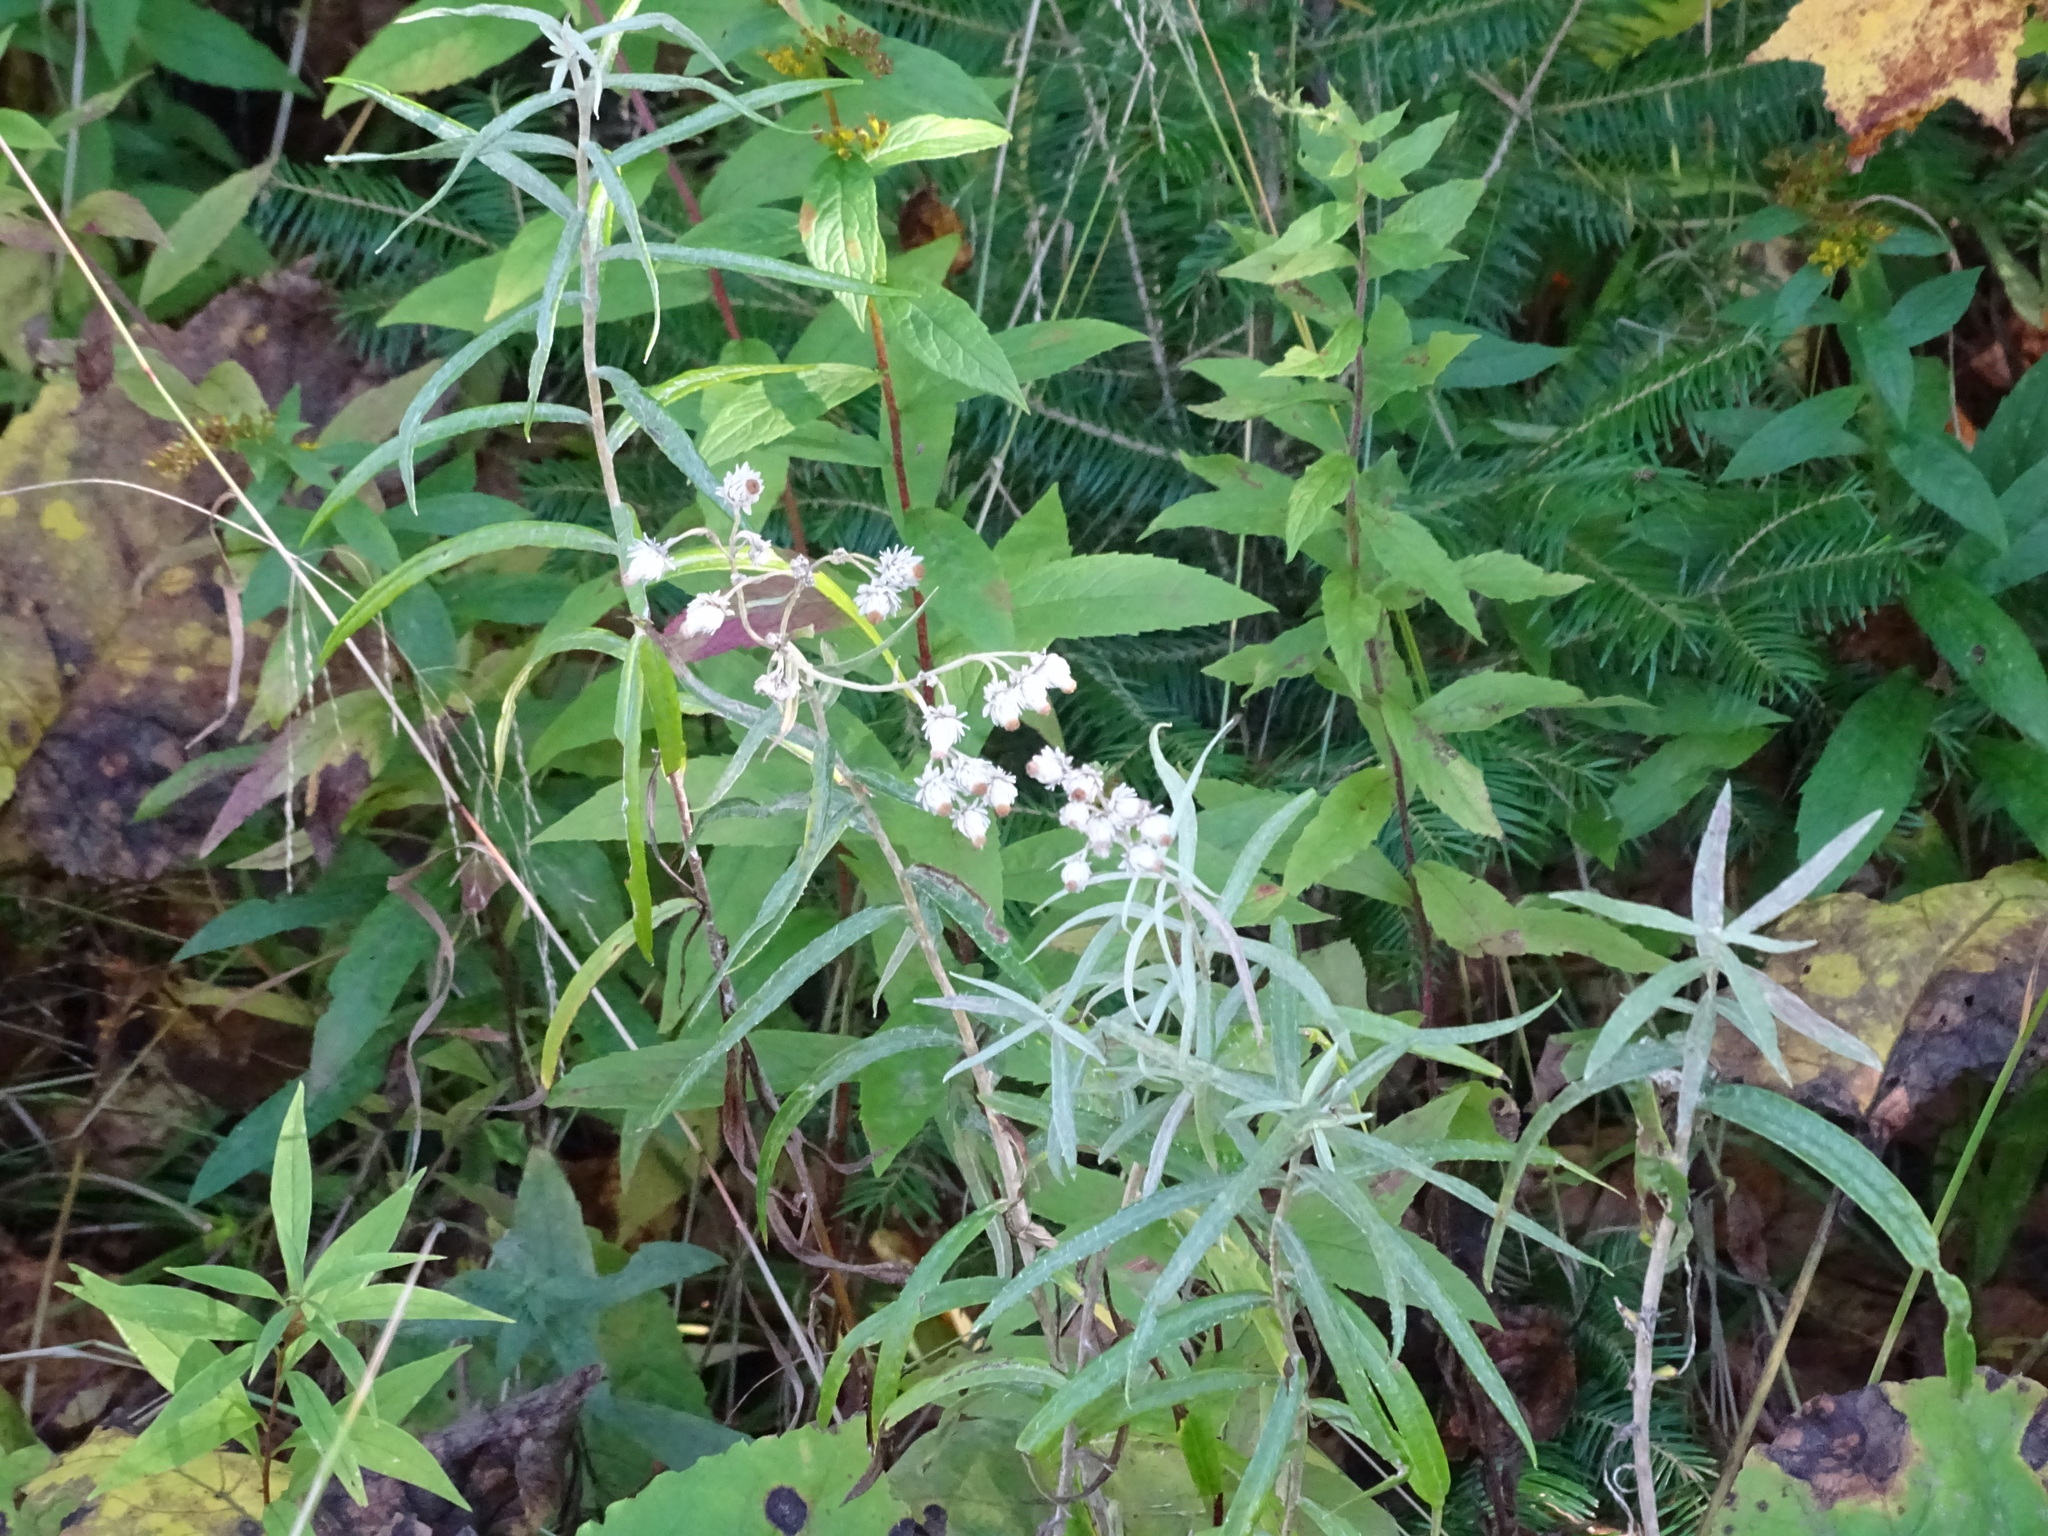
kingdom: Plantae
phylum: Tracheophyta
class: Magnoliopsida
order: Asterales
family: Asteraceae
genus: Anaphalis
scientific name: Anaphalis margaritacea
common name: Pearly everlasting
